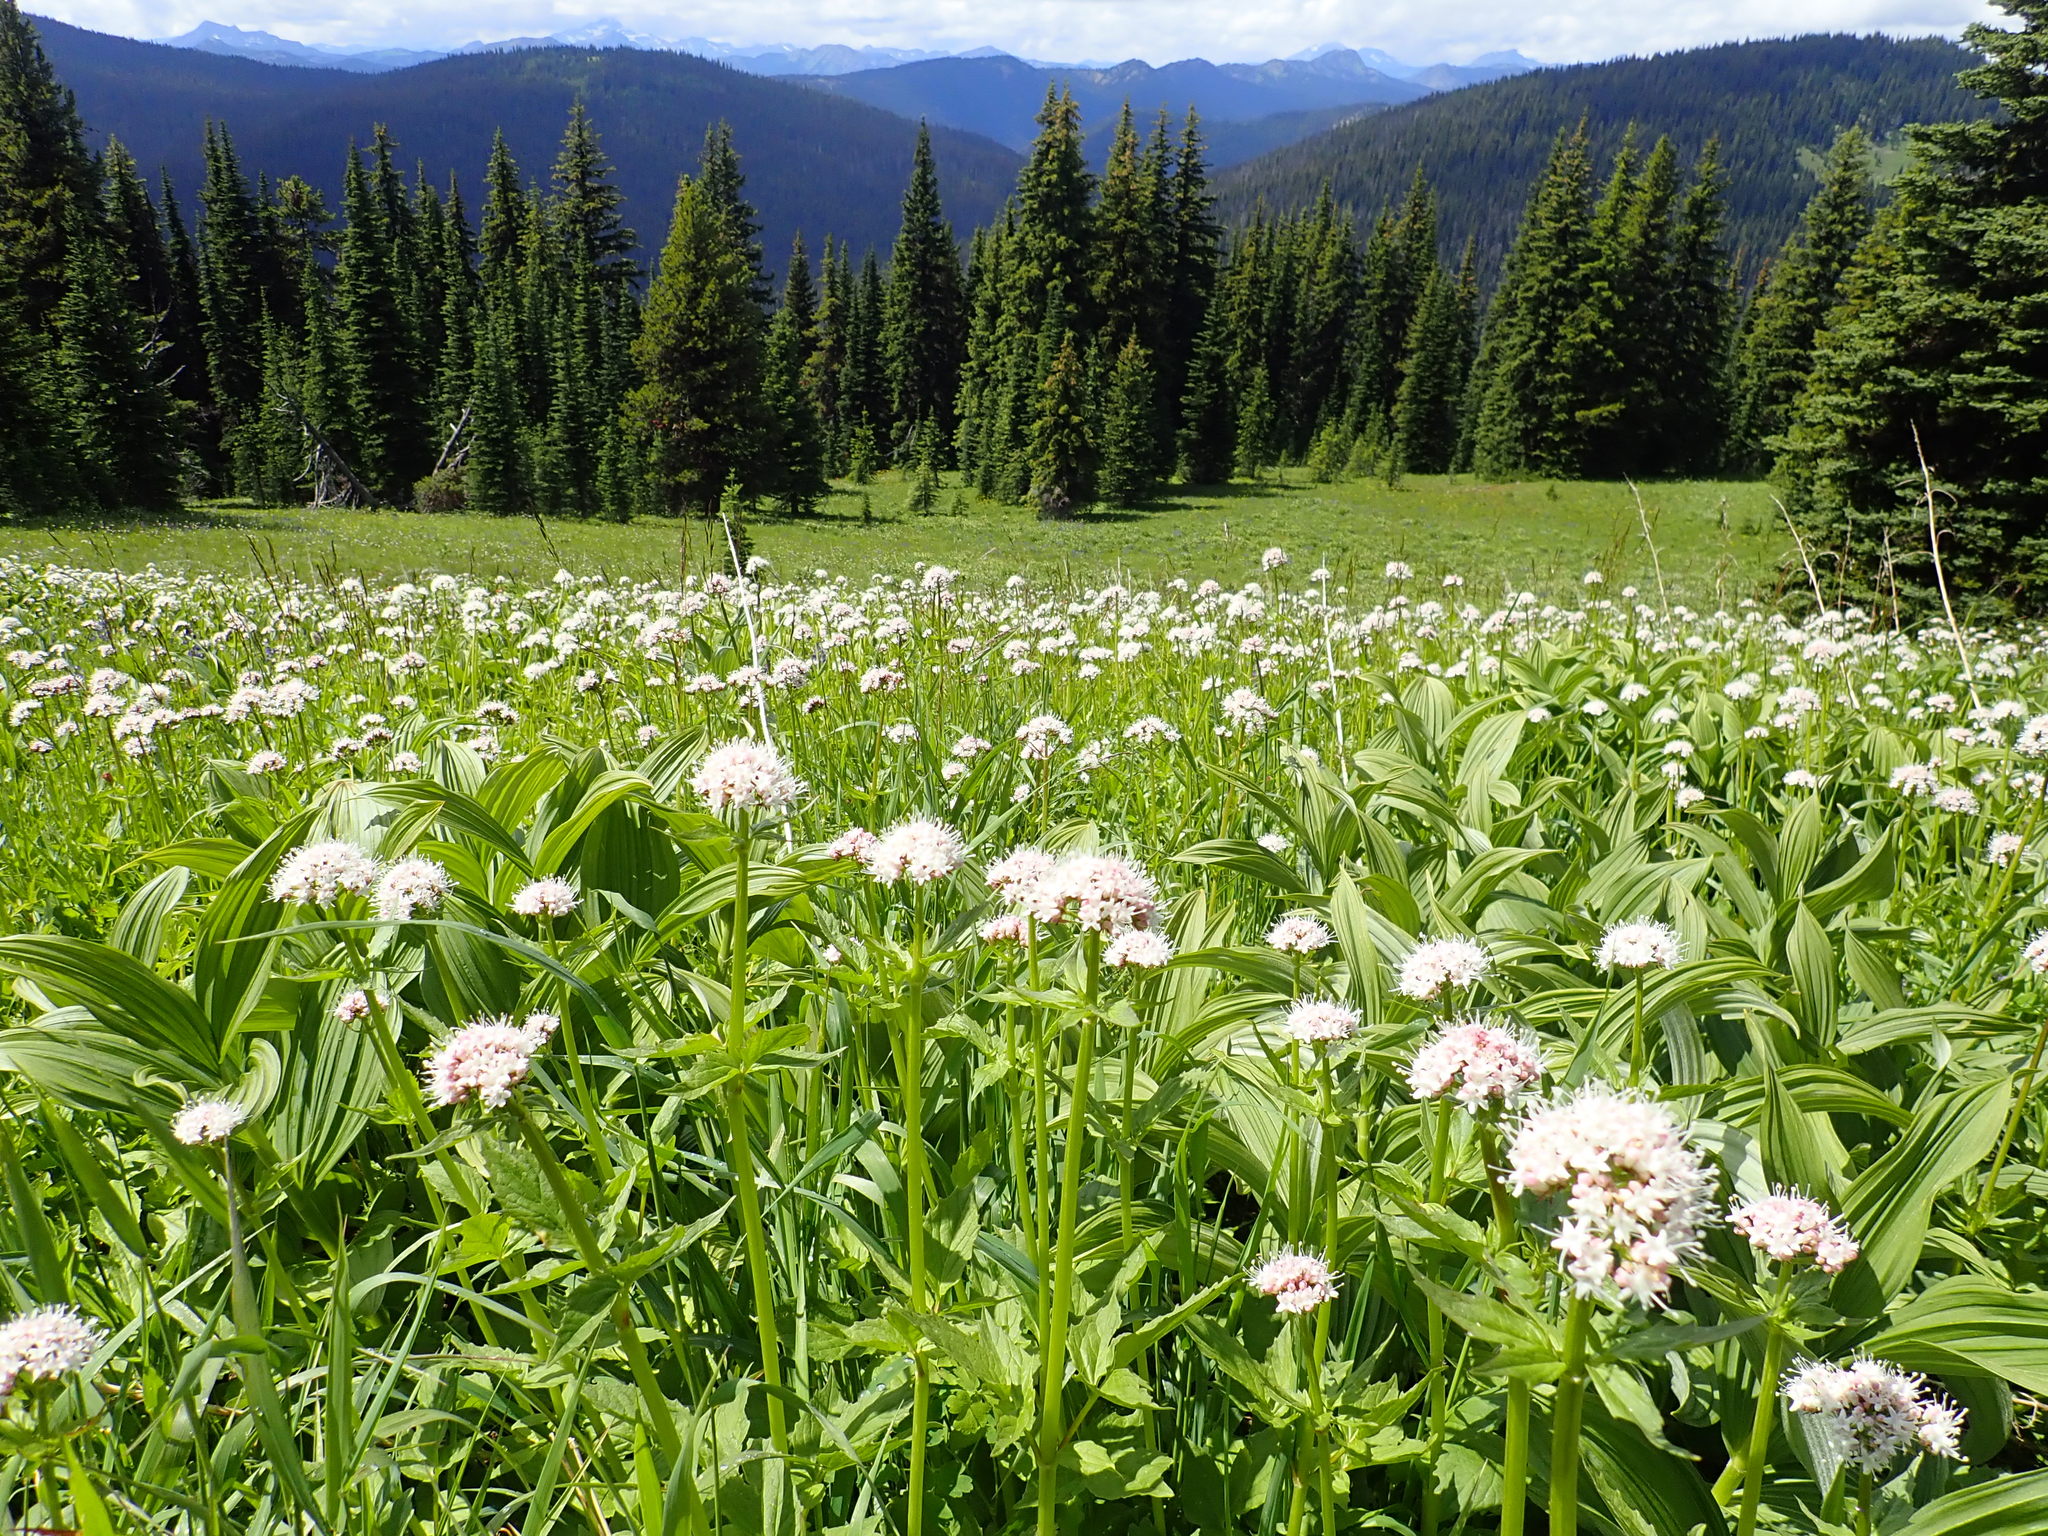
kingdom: Plantae
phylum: Tracheophyta
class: Magnoliopsida
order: Dipsacales
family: Caprifoliaceae
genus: Valeriana
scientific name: Valeriana sitchensis
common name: Pacific valerian
